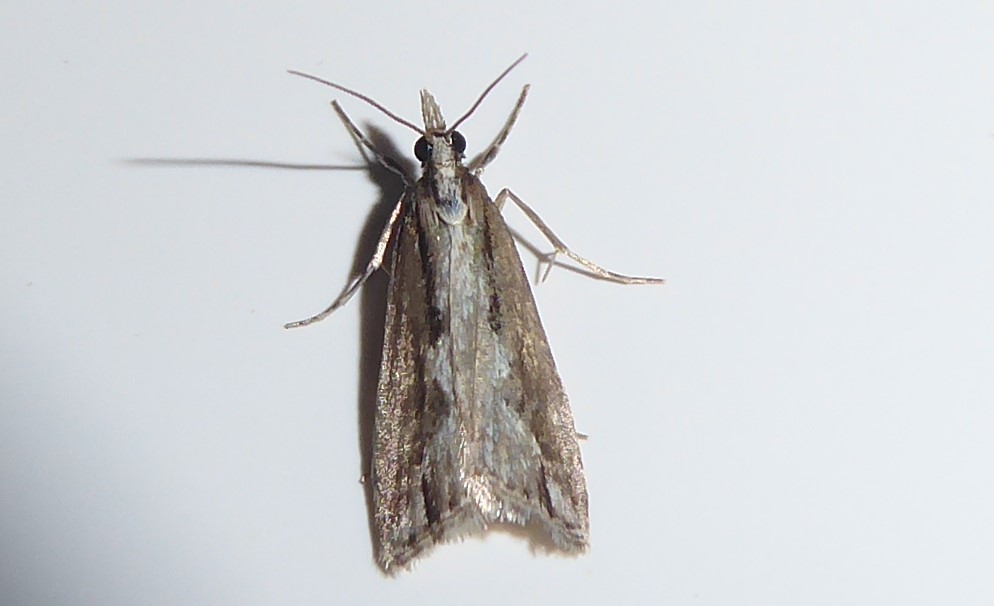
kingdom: Animalia
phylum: Arthropoda
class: Insecta
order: Lepidoptera
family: Crambidae
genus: Eudonia
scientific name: Eudonia steropaea
